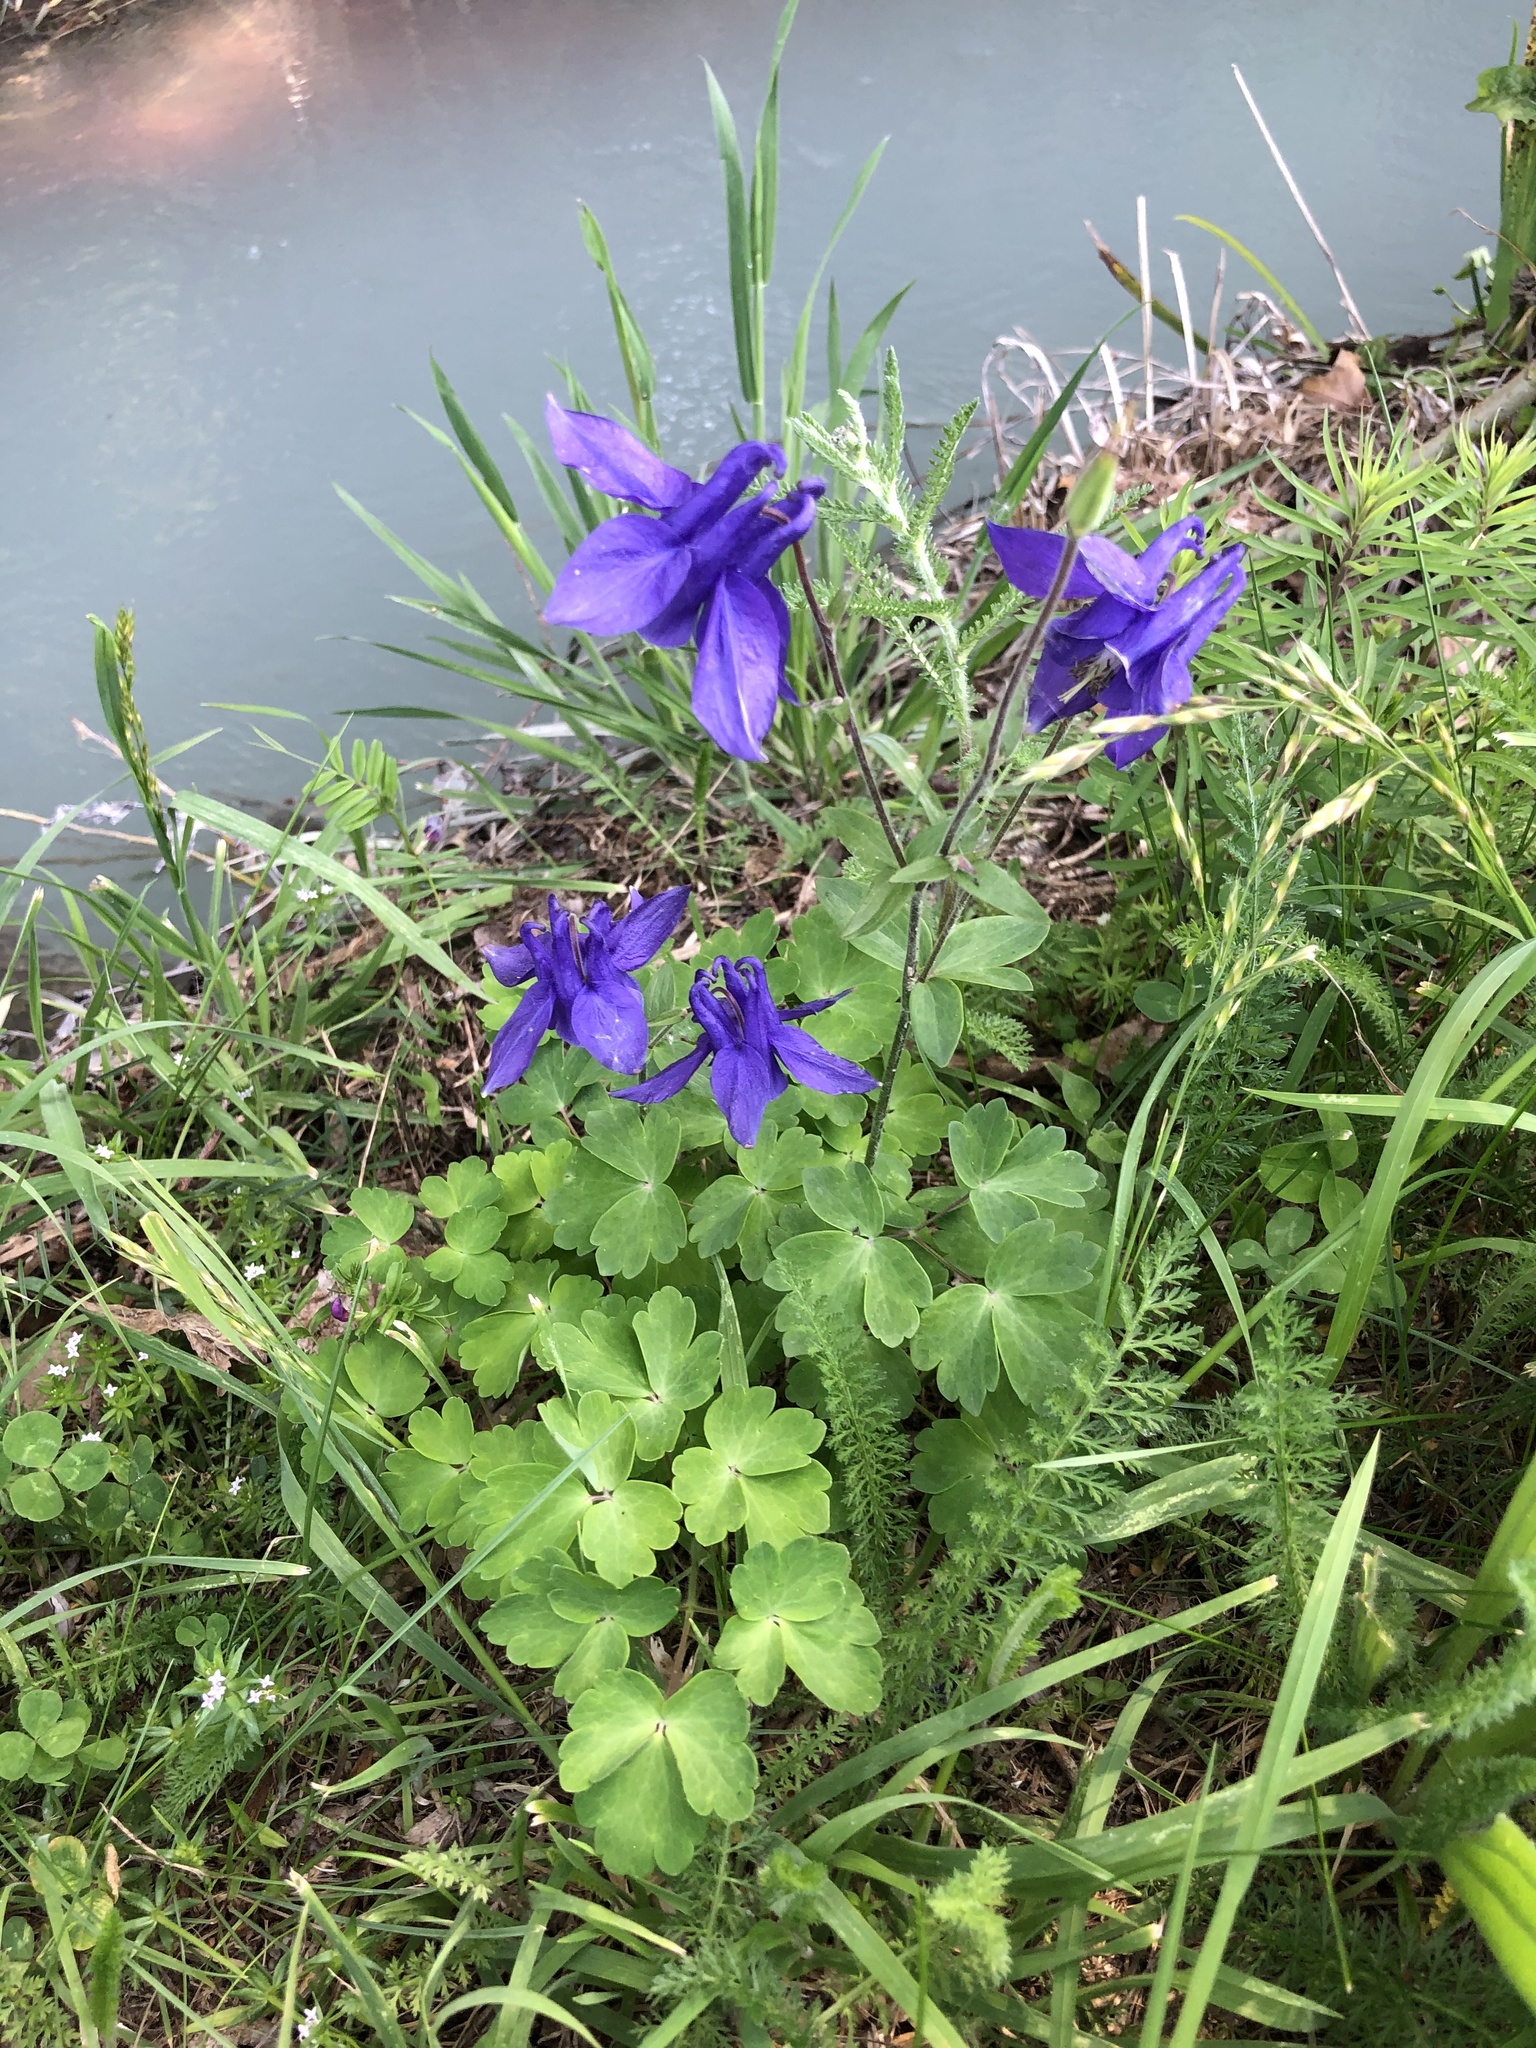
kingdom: Plantae
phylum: Tracheophyta
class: Magnoliopsida
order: Ranunculales
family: Ranunculaceae
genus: Aquilegia
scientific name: Aquilegia vulgaris
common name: Columbine
